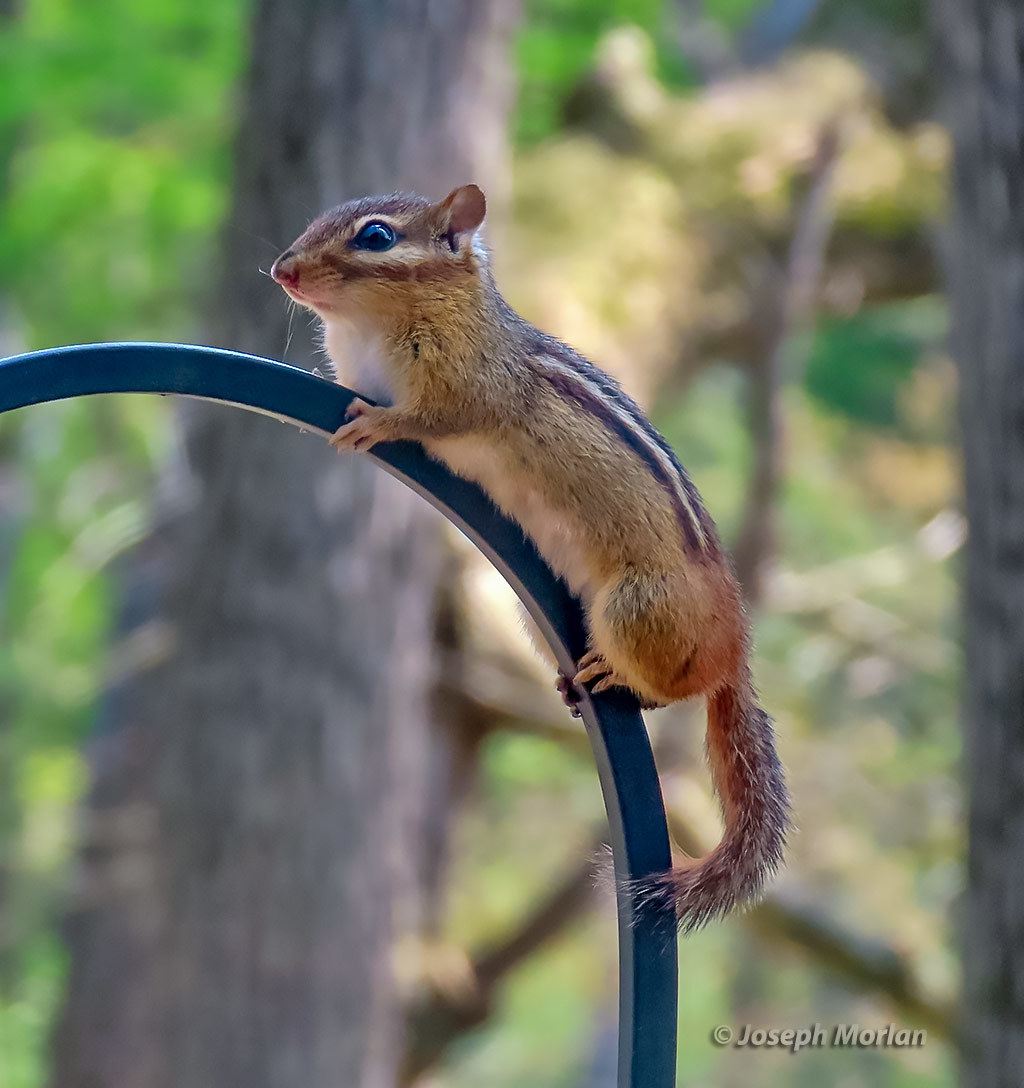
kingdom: Animalia
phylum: Chordata
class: Mammalia
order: Rodentia
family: Sciuridae
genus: Tamias
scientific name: Tamias striatus
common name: Eastern chipmunk
